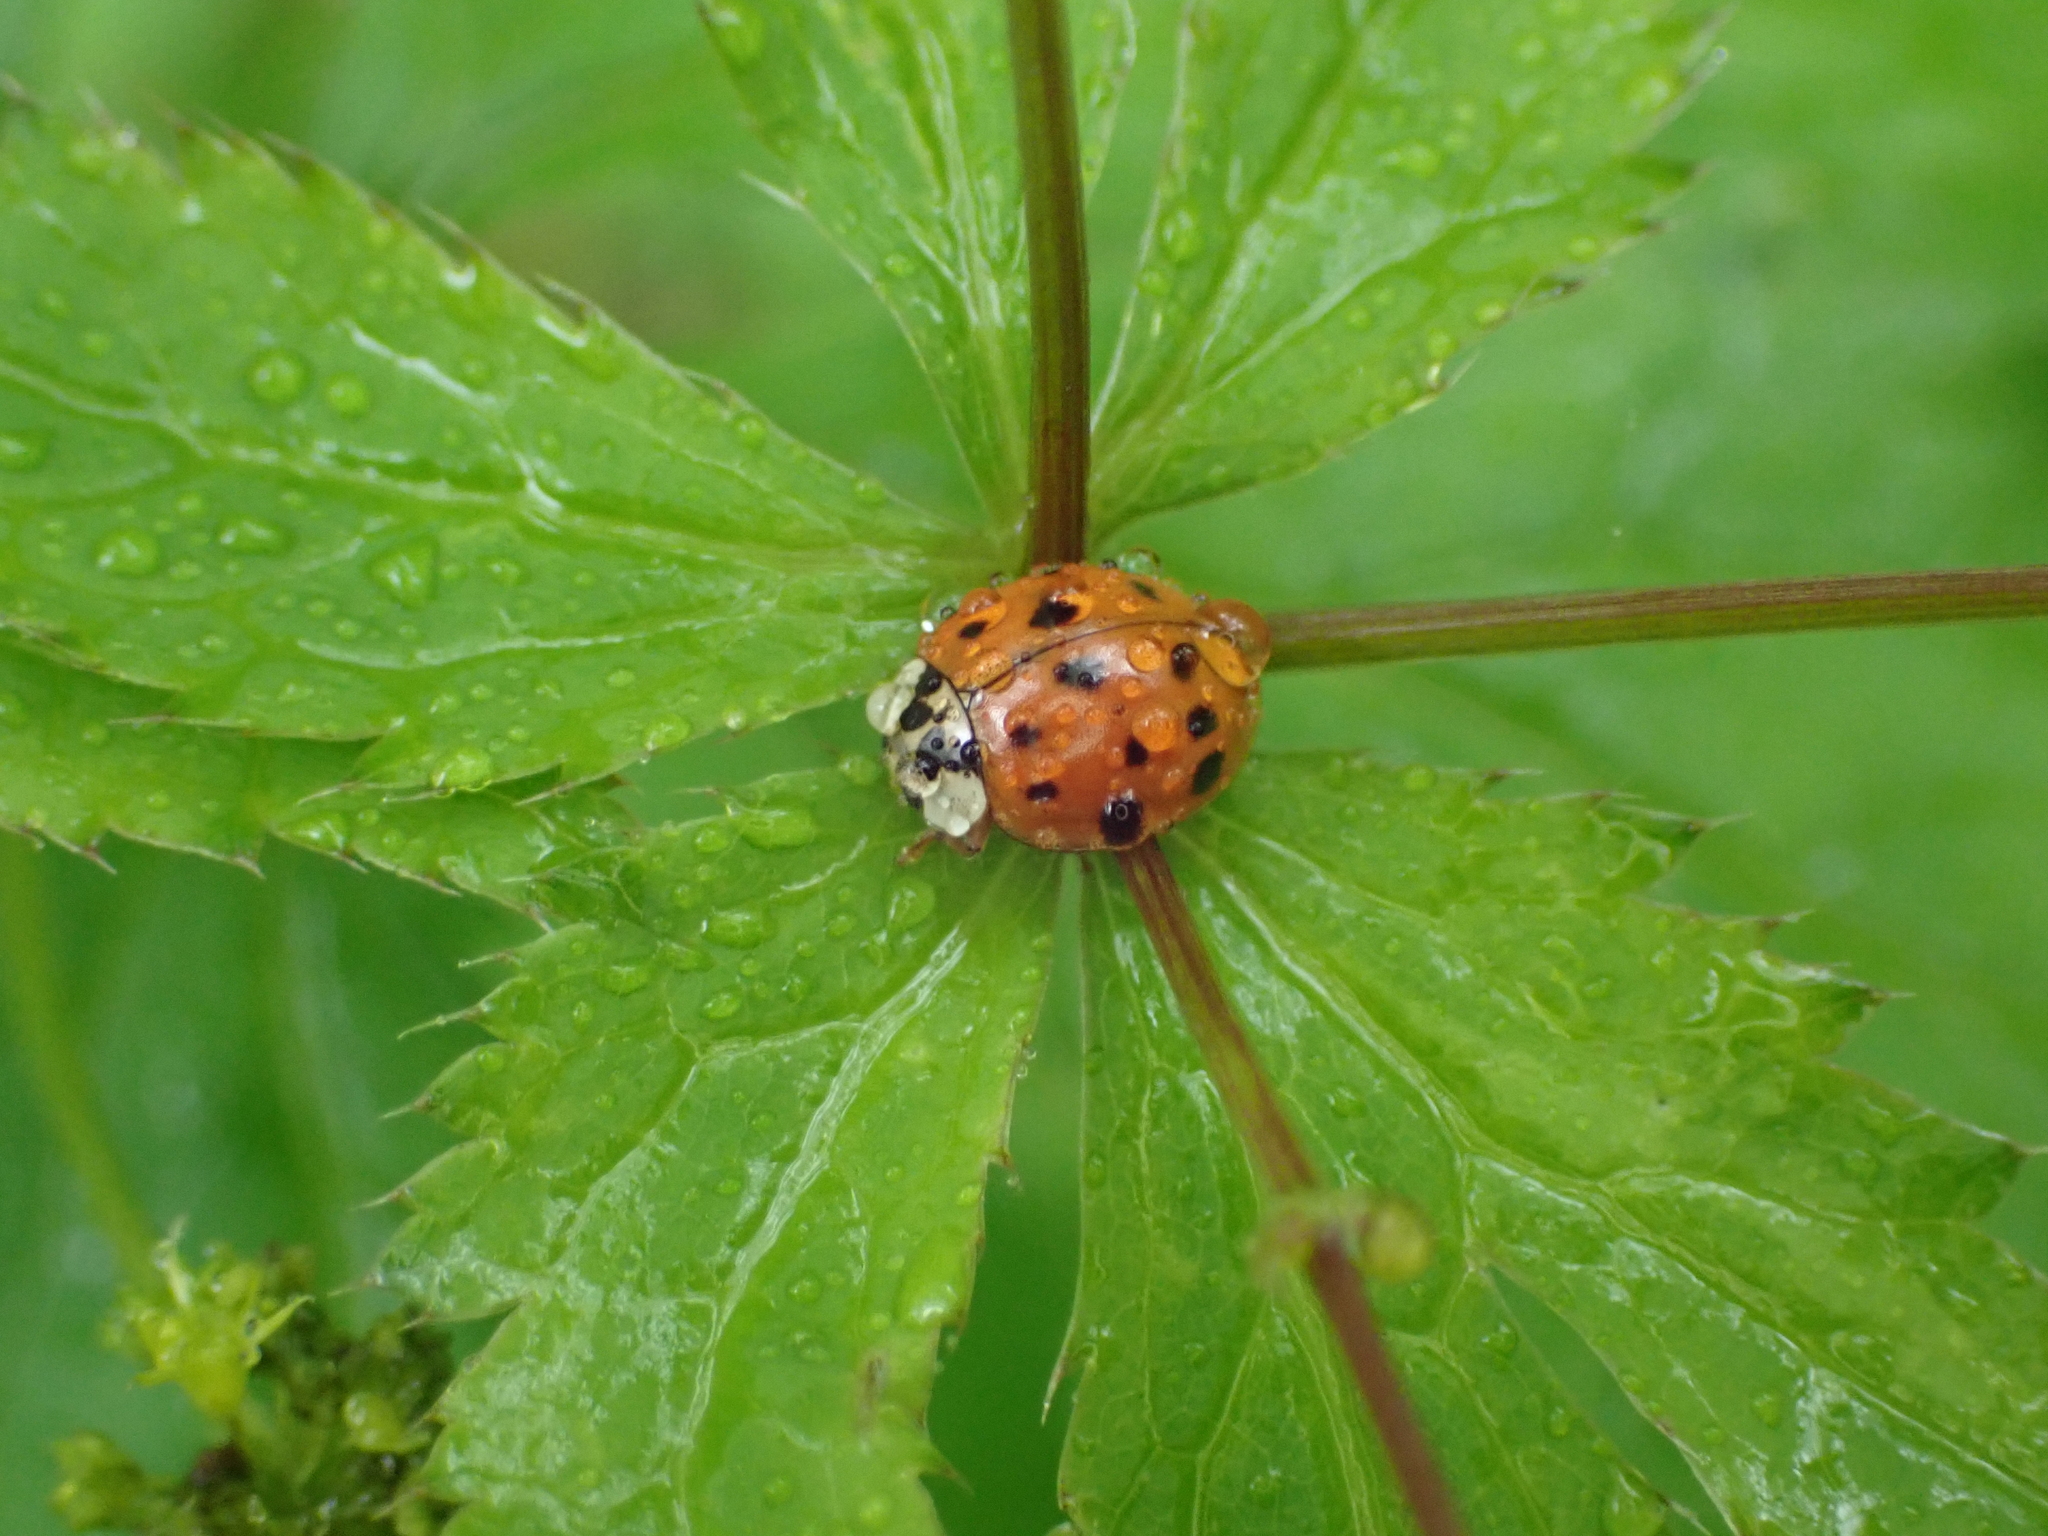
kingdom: Animalia
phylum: Arthropoda
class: Insecta
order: Coleoptera
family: Coccinellidae
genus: Harmonia
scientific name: Harmonia axyridis
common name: Harlequin ladybird
